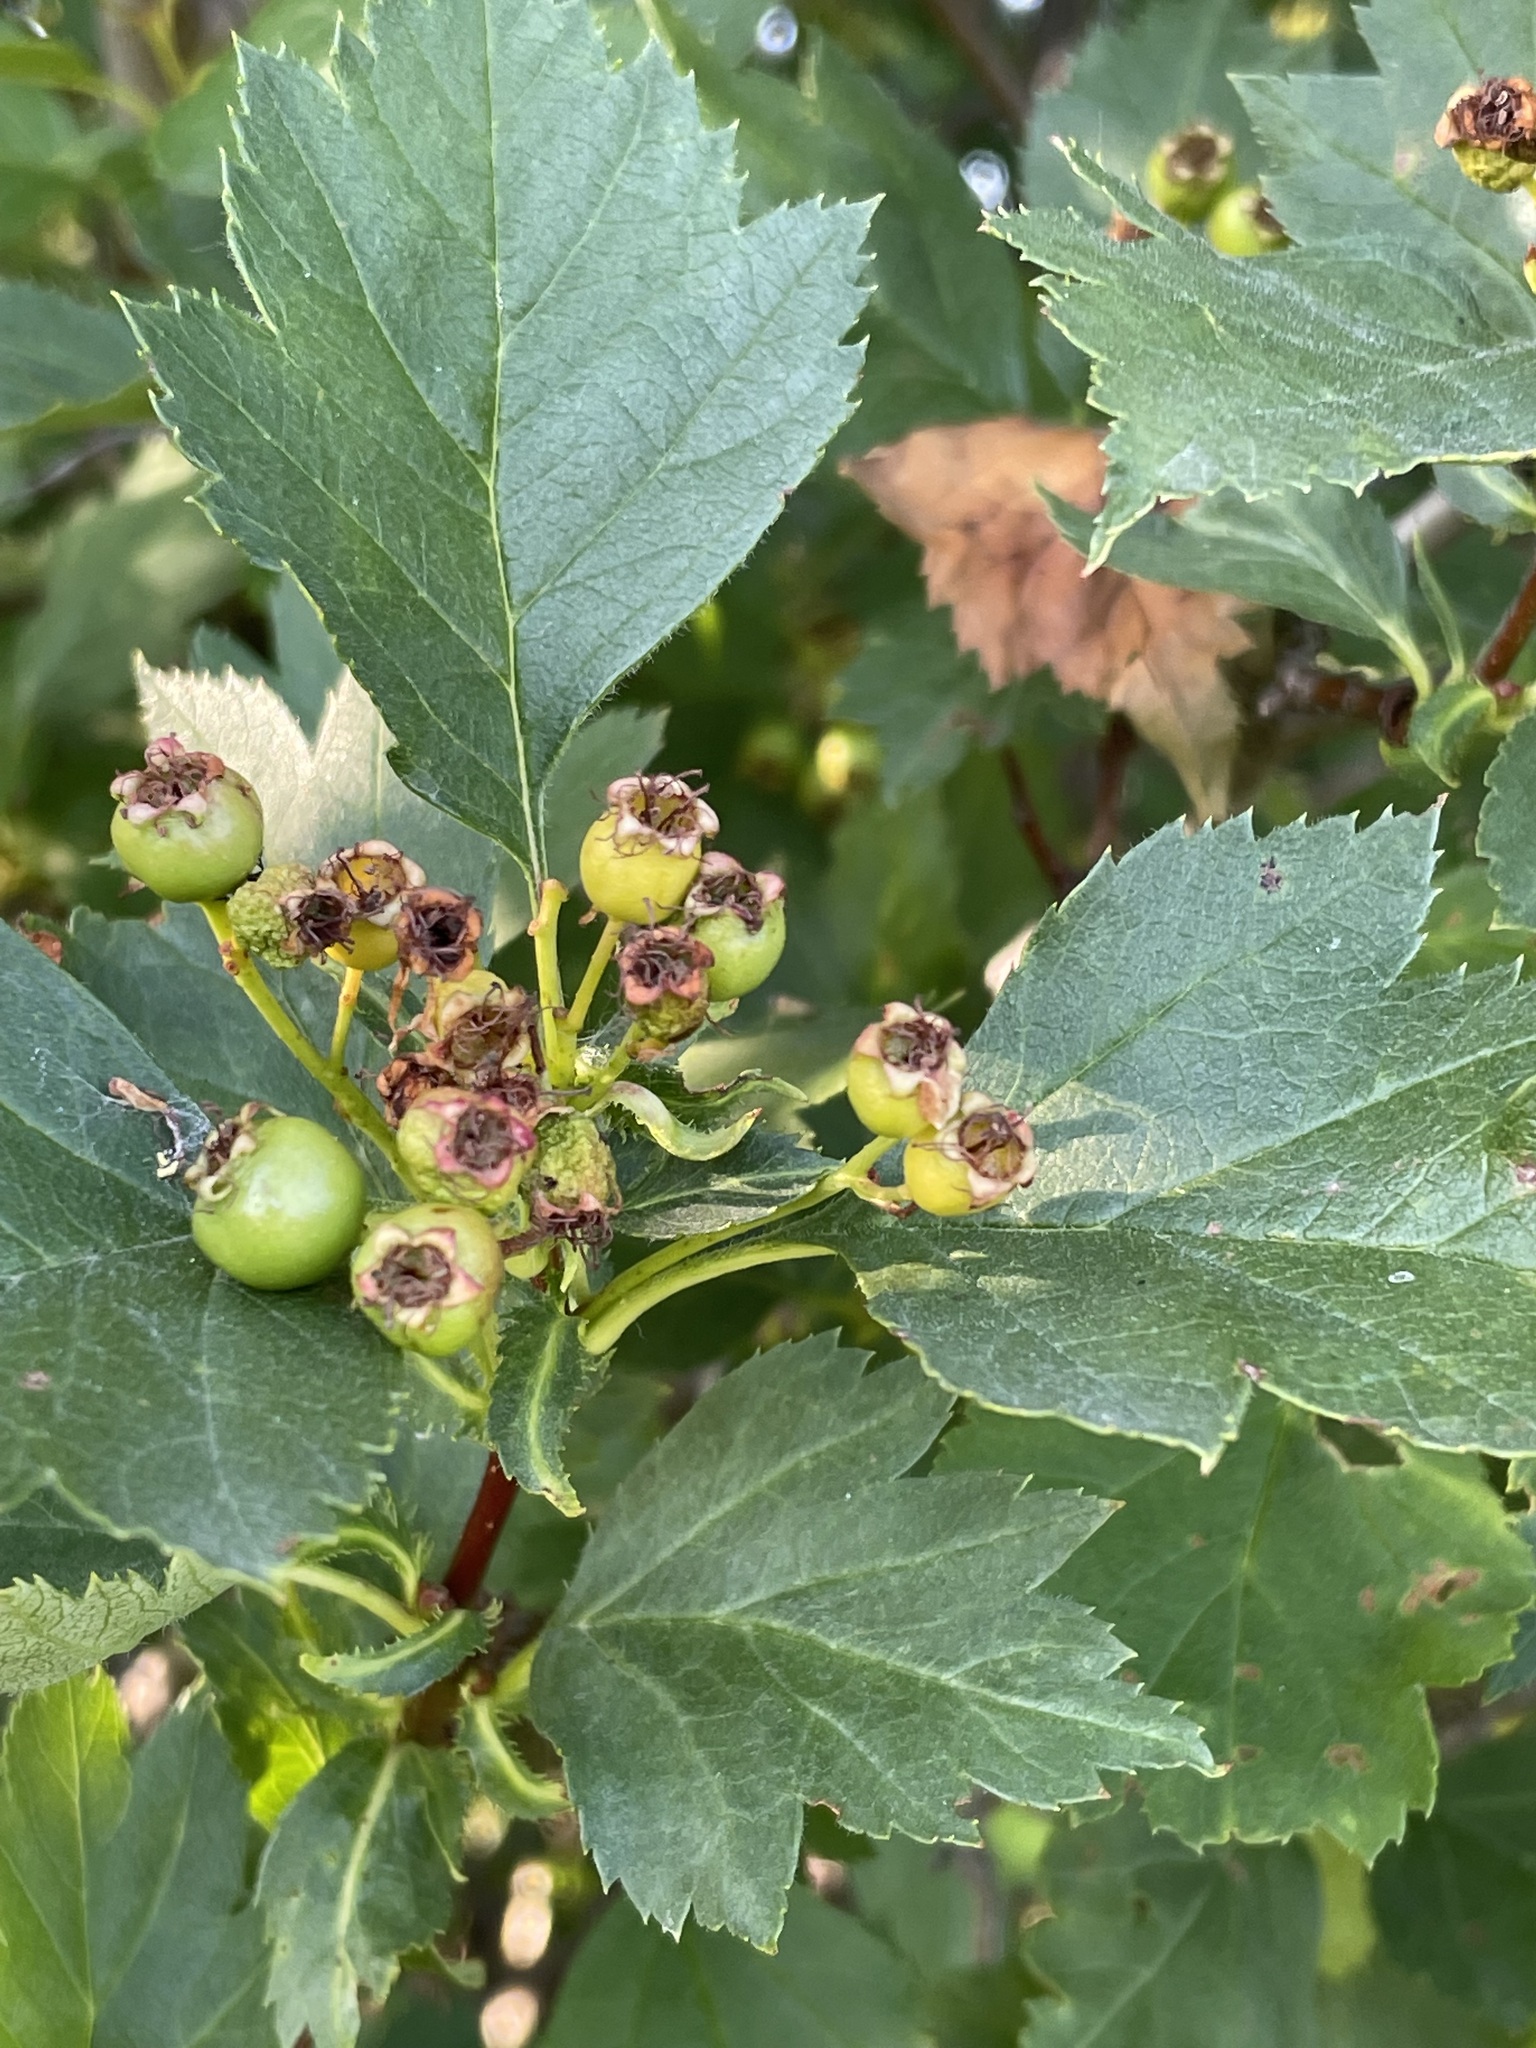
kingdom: Plantae
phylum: Tracheophyta
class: Magnoliopsida
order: Rosales
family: Rosaceae
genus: Crataegus
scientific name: Crataegus sanguinea
